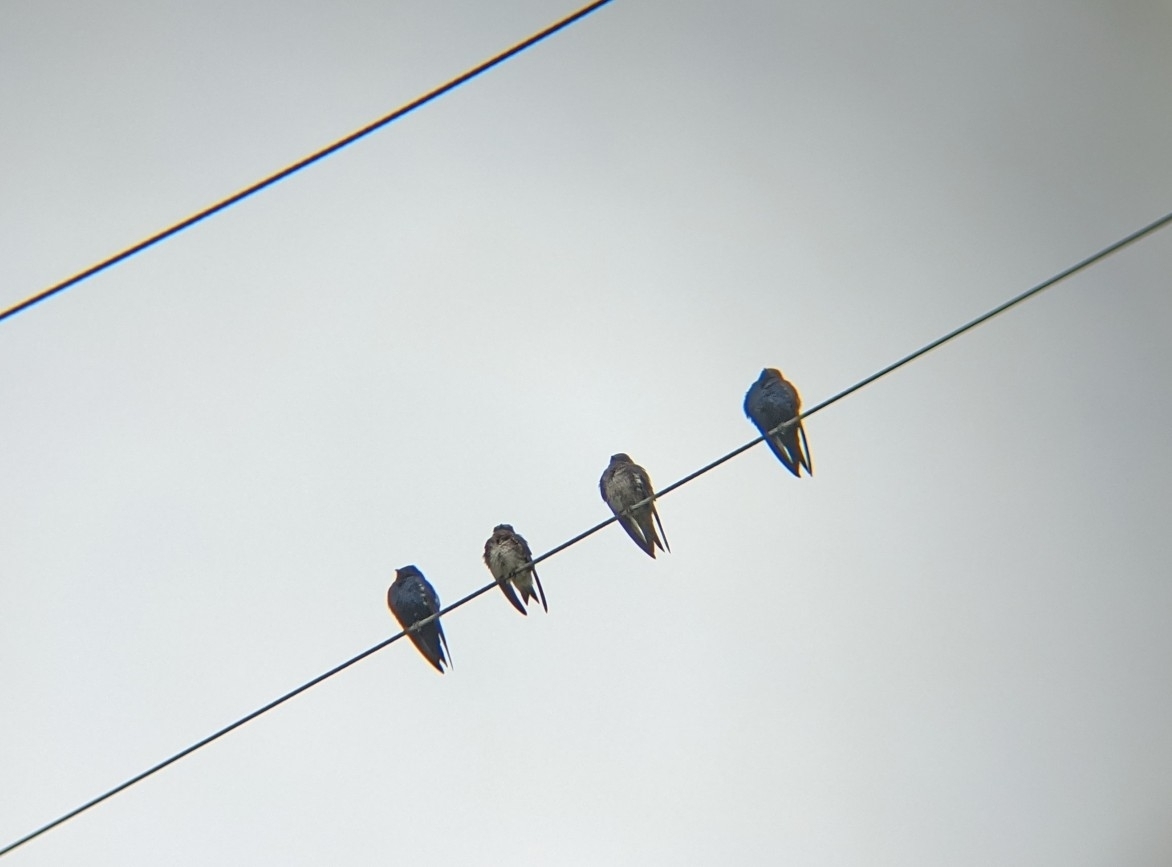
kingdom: Animalia
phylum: Chordata
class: Aves
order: Passeriformes
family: Hirundinidae
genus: Progne
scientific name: Progne subis
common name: Purple martin
